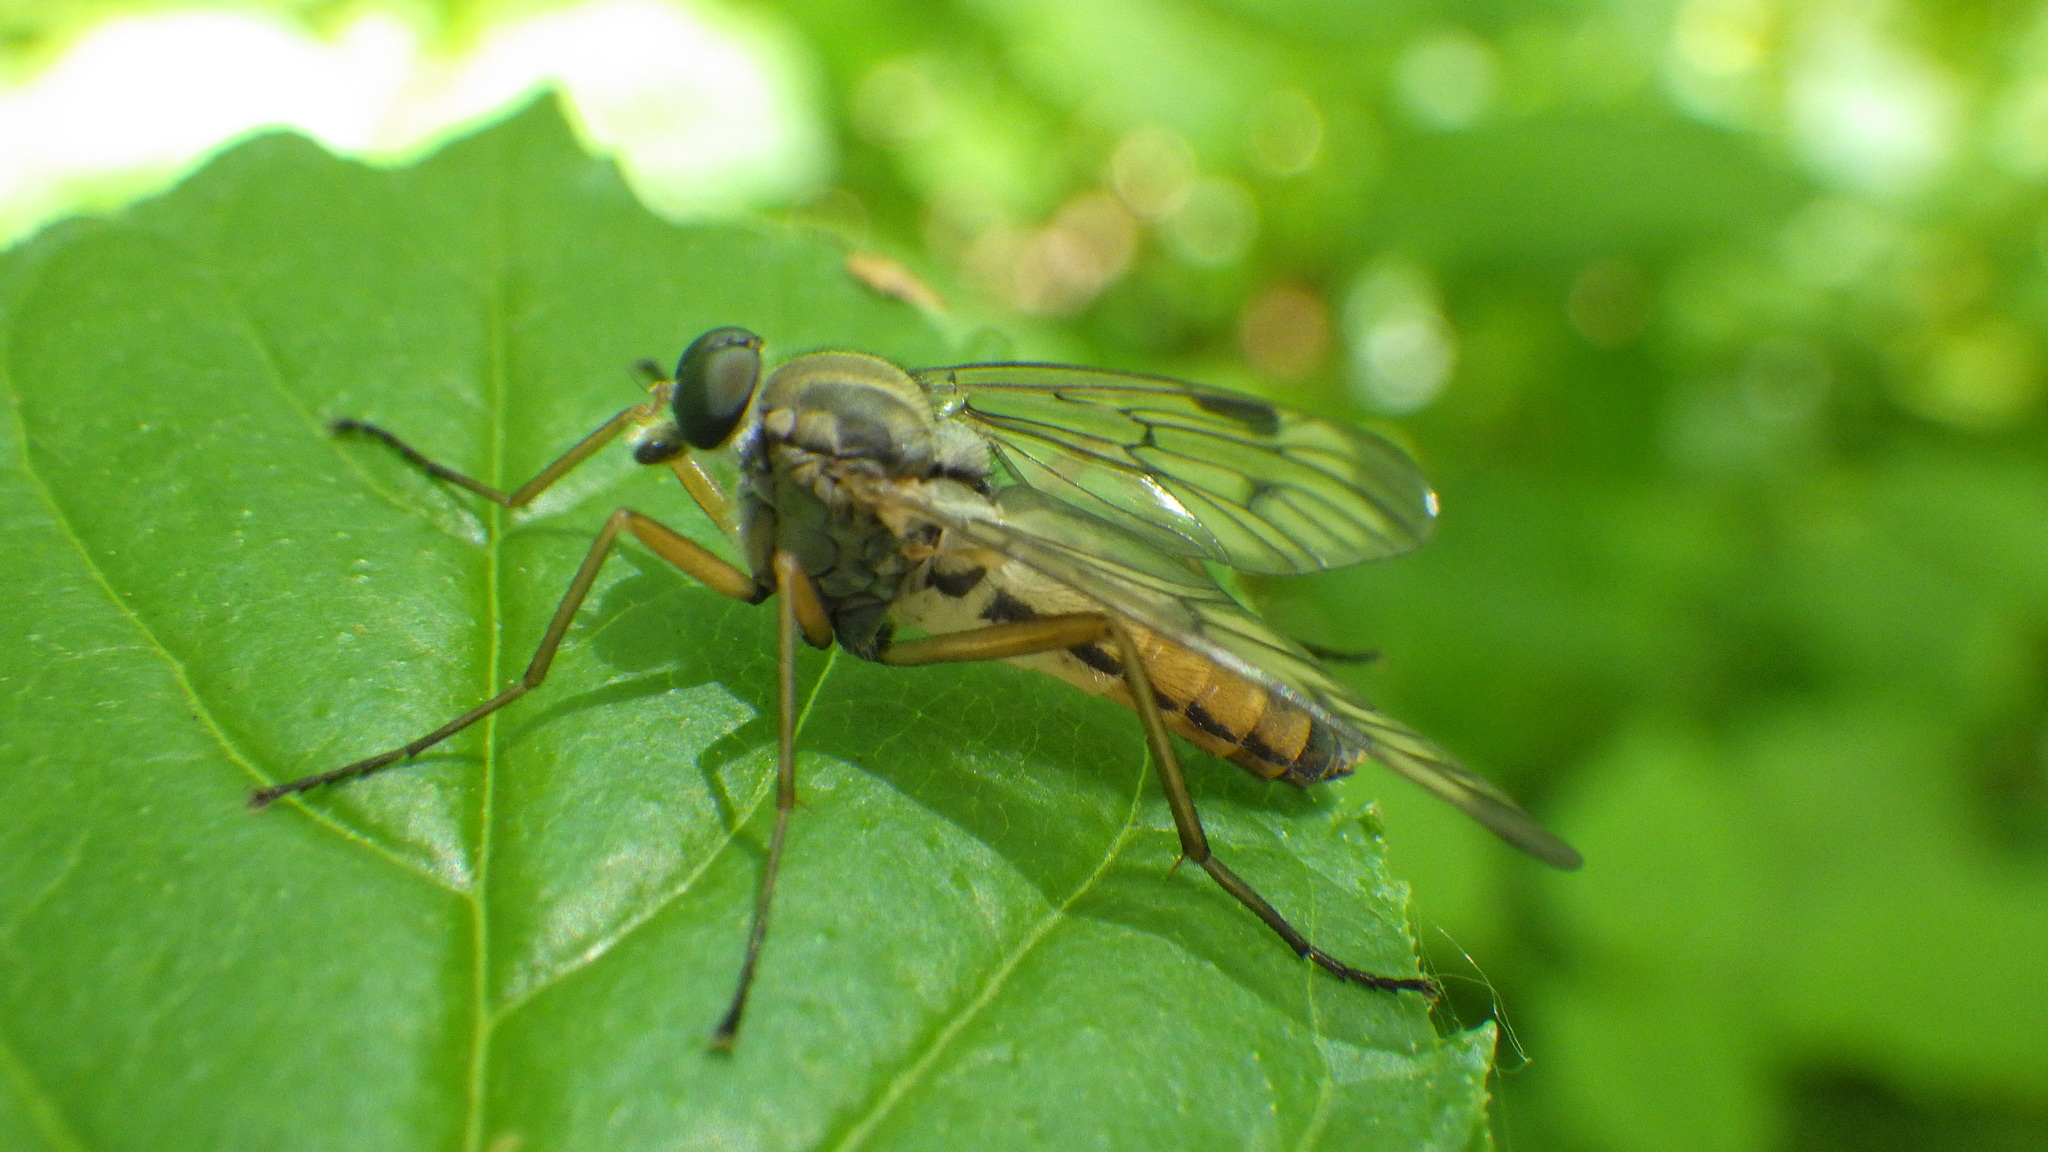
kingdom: Animalia
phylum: Arthropoda
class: Insecta
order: Diptera
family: Rhagionidae
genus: Rhagio
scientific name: Rhagio scolopacea
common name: Downlooker snipefly
